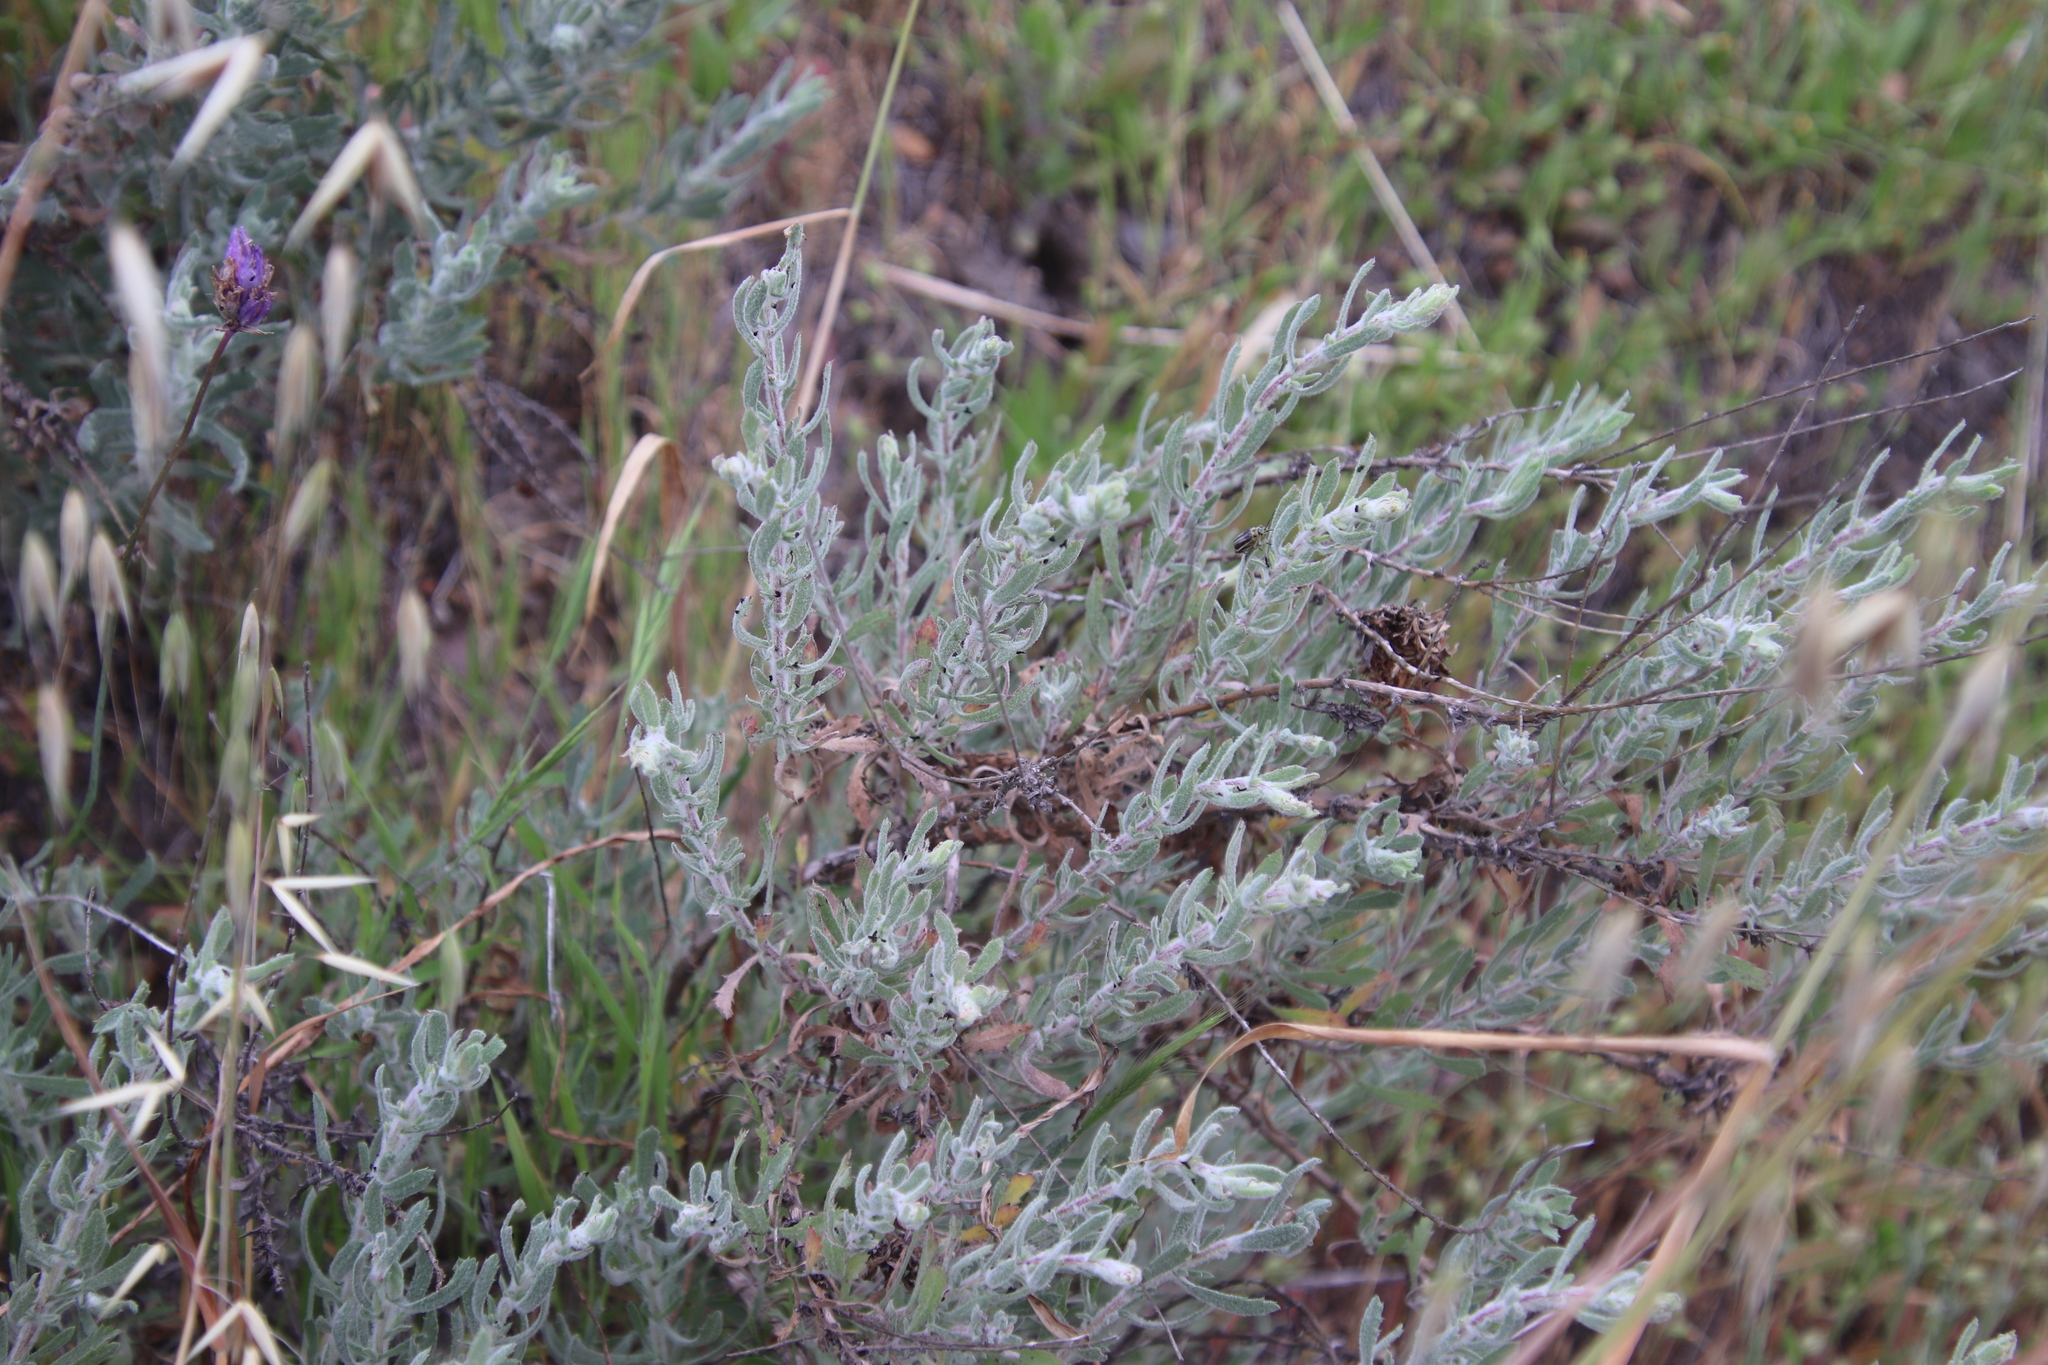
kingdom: Plantae
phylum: Tracheophyta
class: Magnoliopsida
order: Asterales
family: Asteraceae
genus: Isocoma
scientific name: Isocoma menziesii
